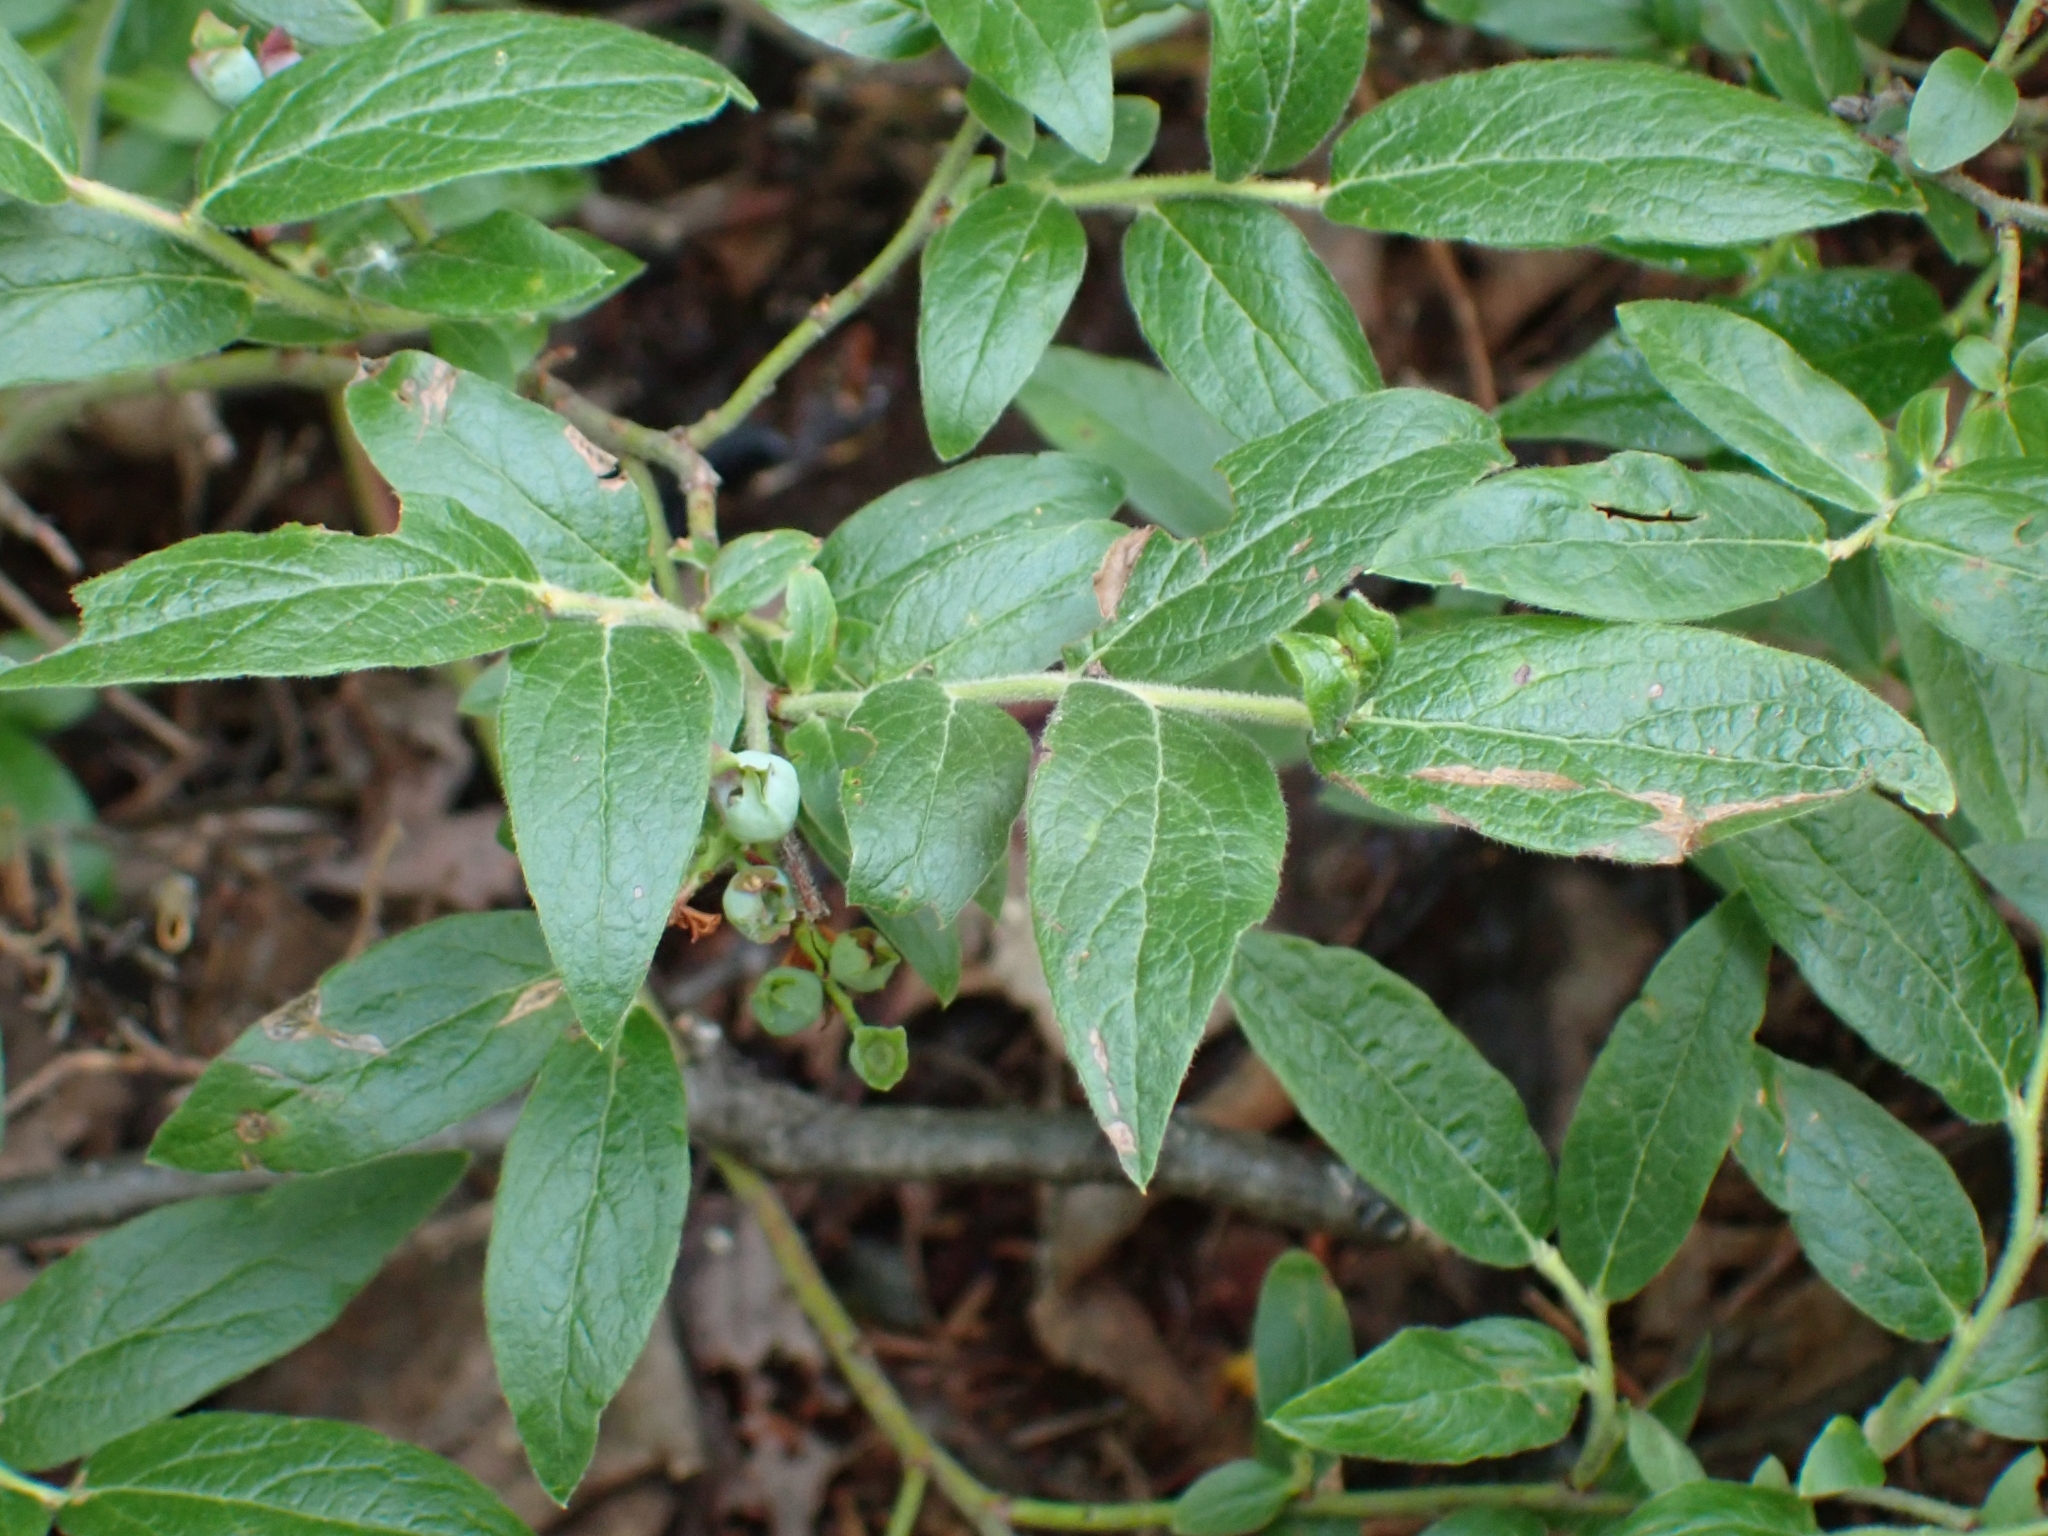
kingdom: Plantae
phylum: Tracheophyta
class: Magnoliopsida
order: Ericales
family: Ericaceae
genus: Vaccinium
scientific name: Vaccinium myrtilloides
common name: Canada blueberry
